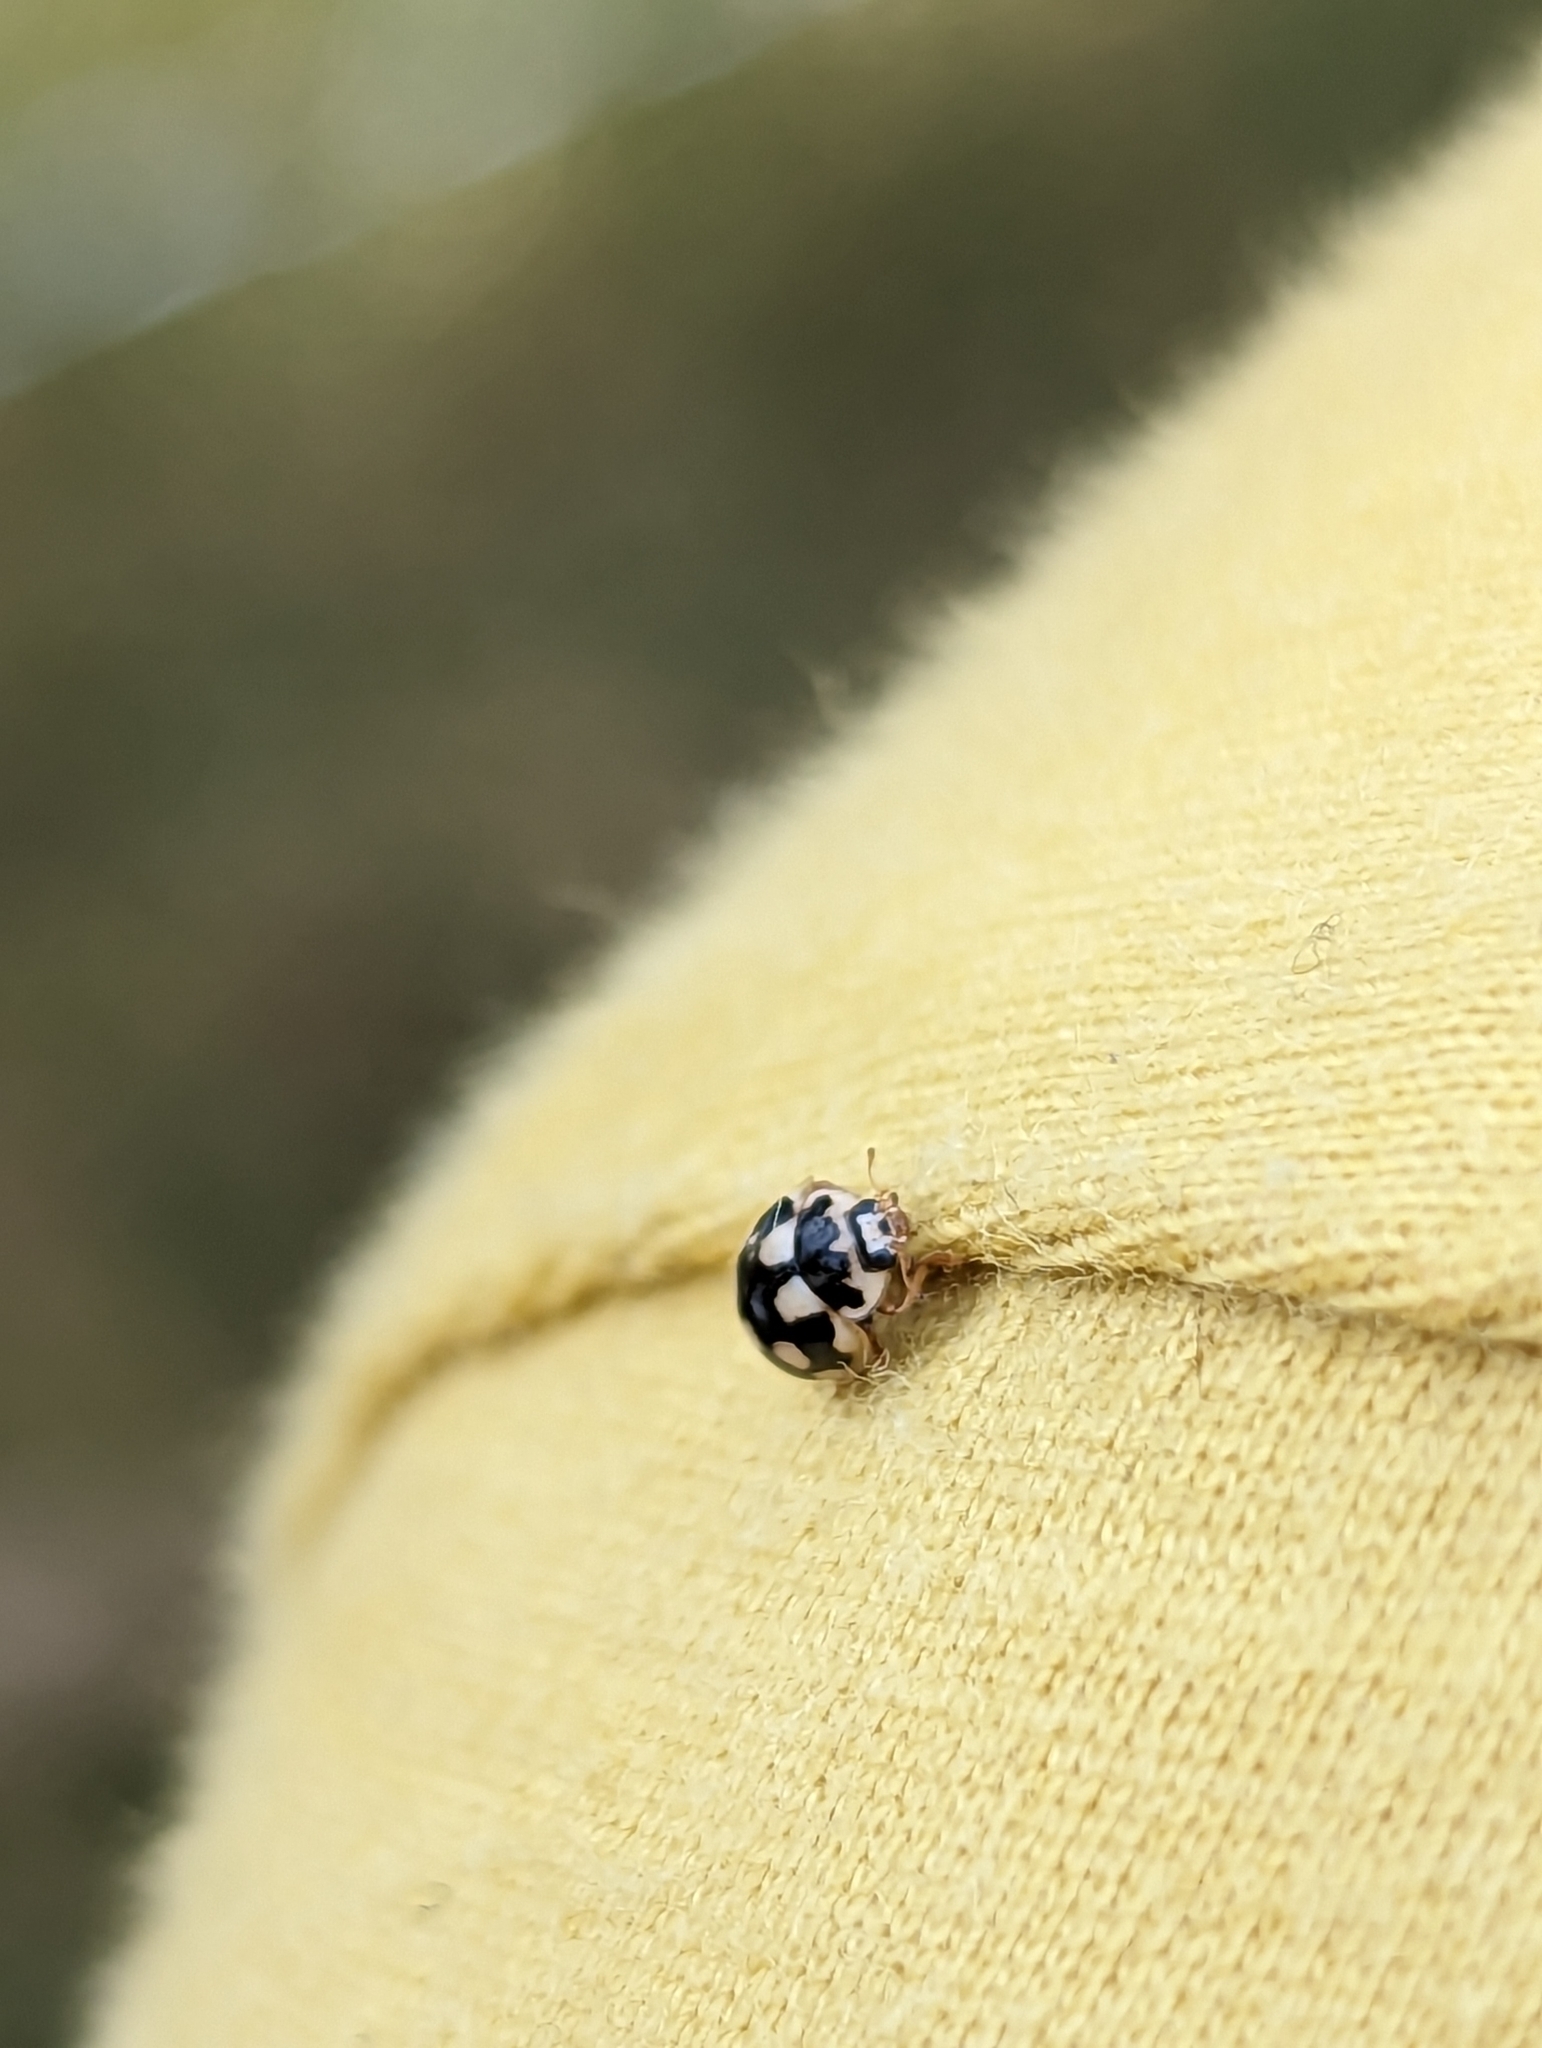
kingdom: Animalia
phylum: Arthropoda
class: Insecta
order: Coleoptera
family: Coccinellidae
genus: Propylaea
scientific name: Propylaea quatuordecimpunctata
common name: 14-spotted ladybird beetle
